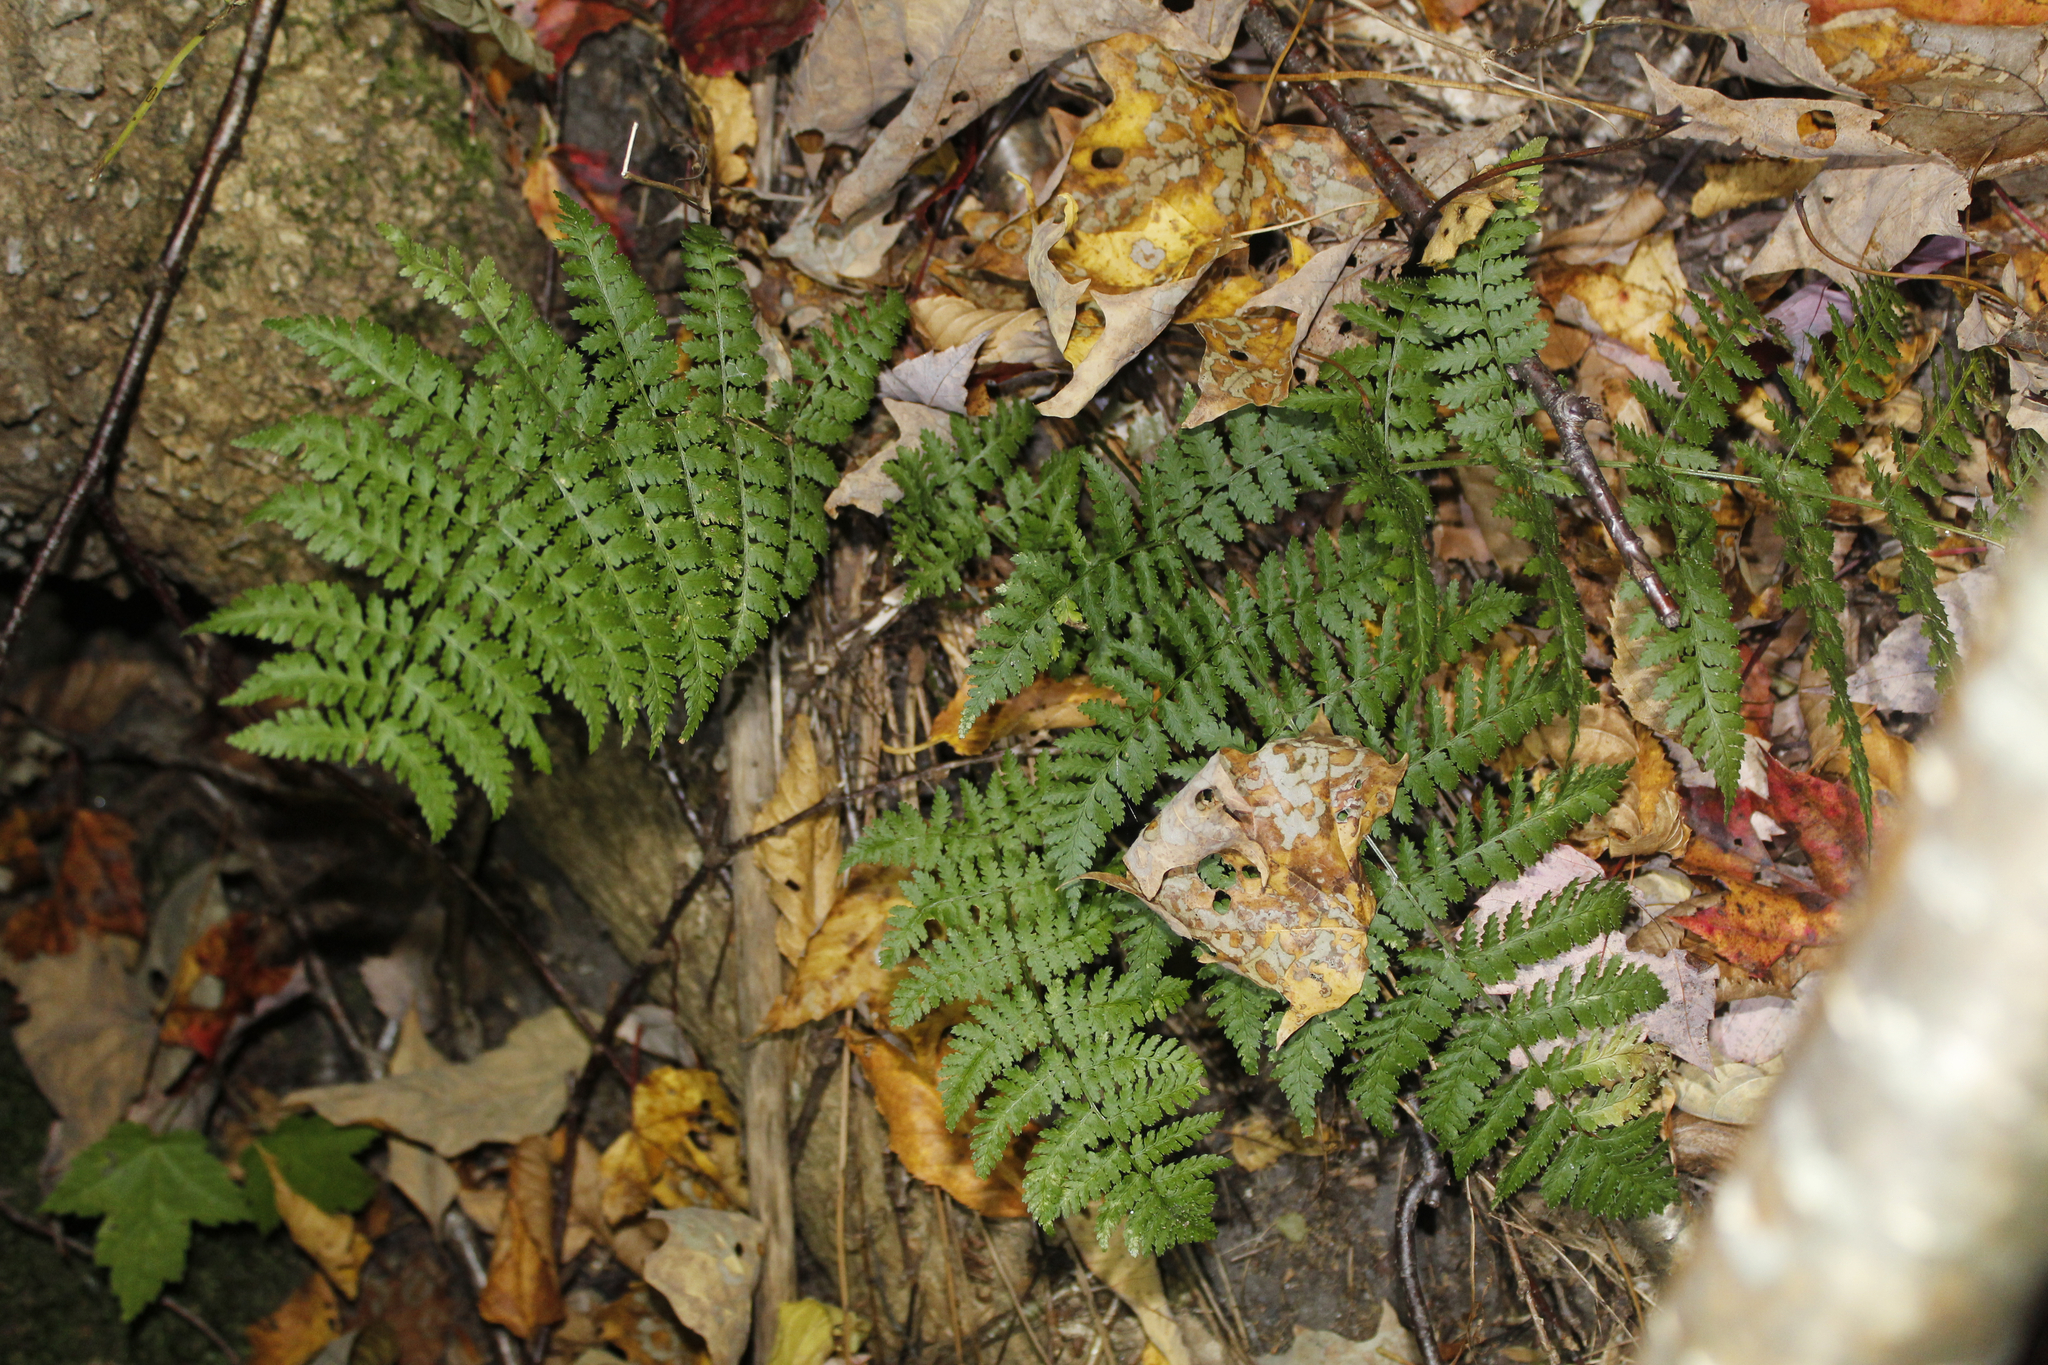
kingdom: Plantae
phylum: Tracheophyta
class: Polypodiopsida
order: Polypodiales
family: Dryopteridaceae
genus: Dryopteris
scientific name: Dryopteris intermedia
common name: Evergreen wood fern
